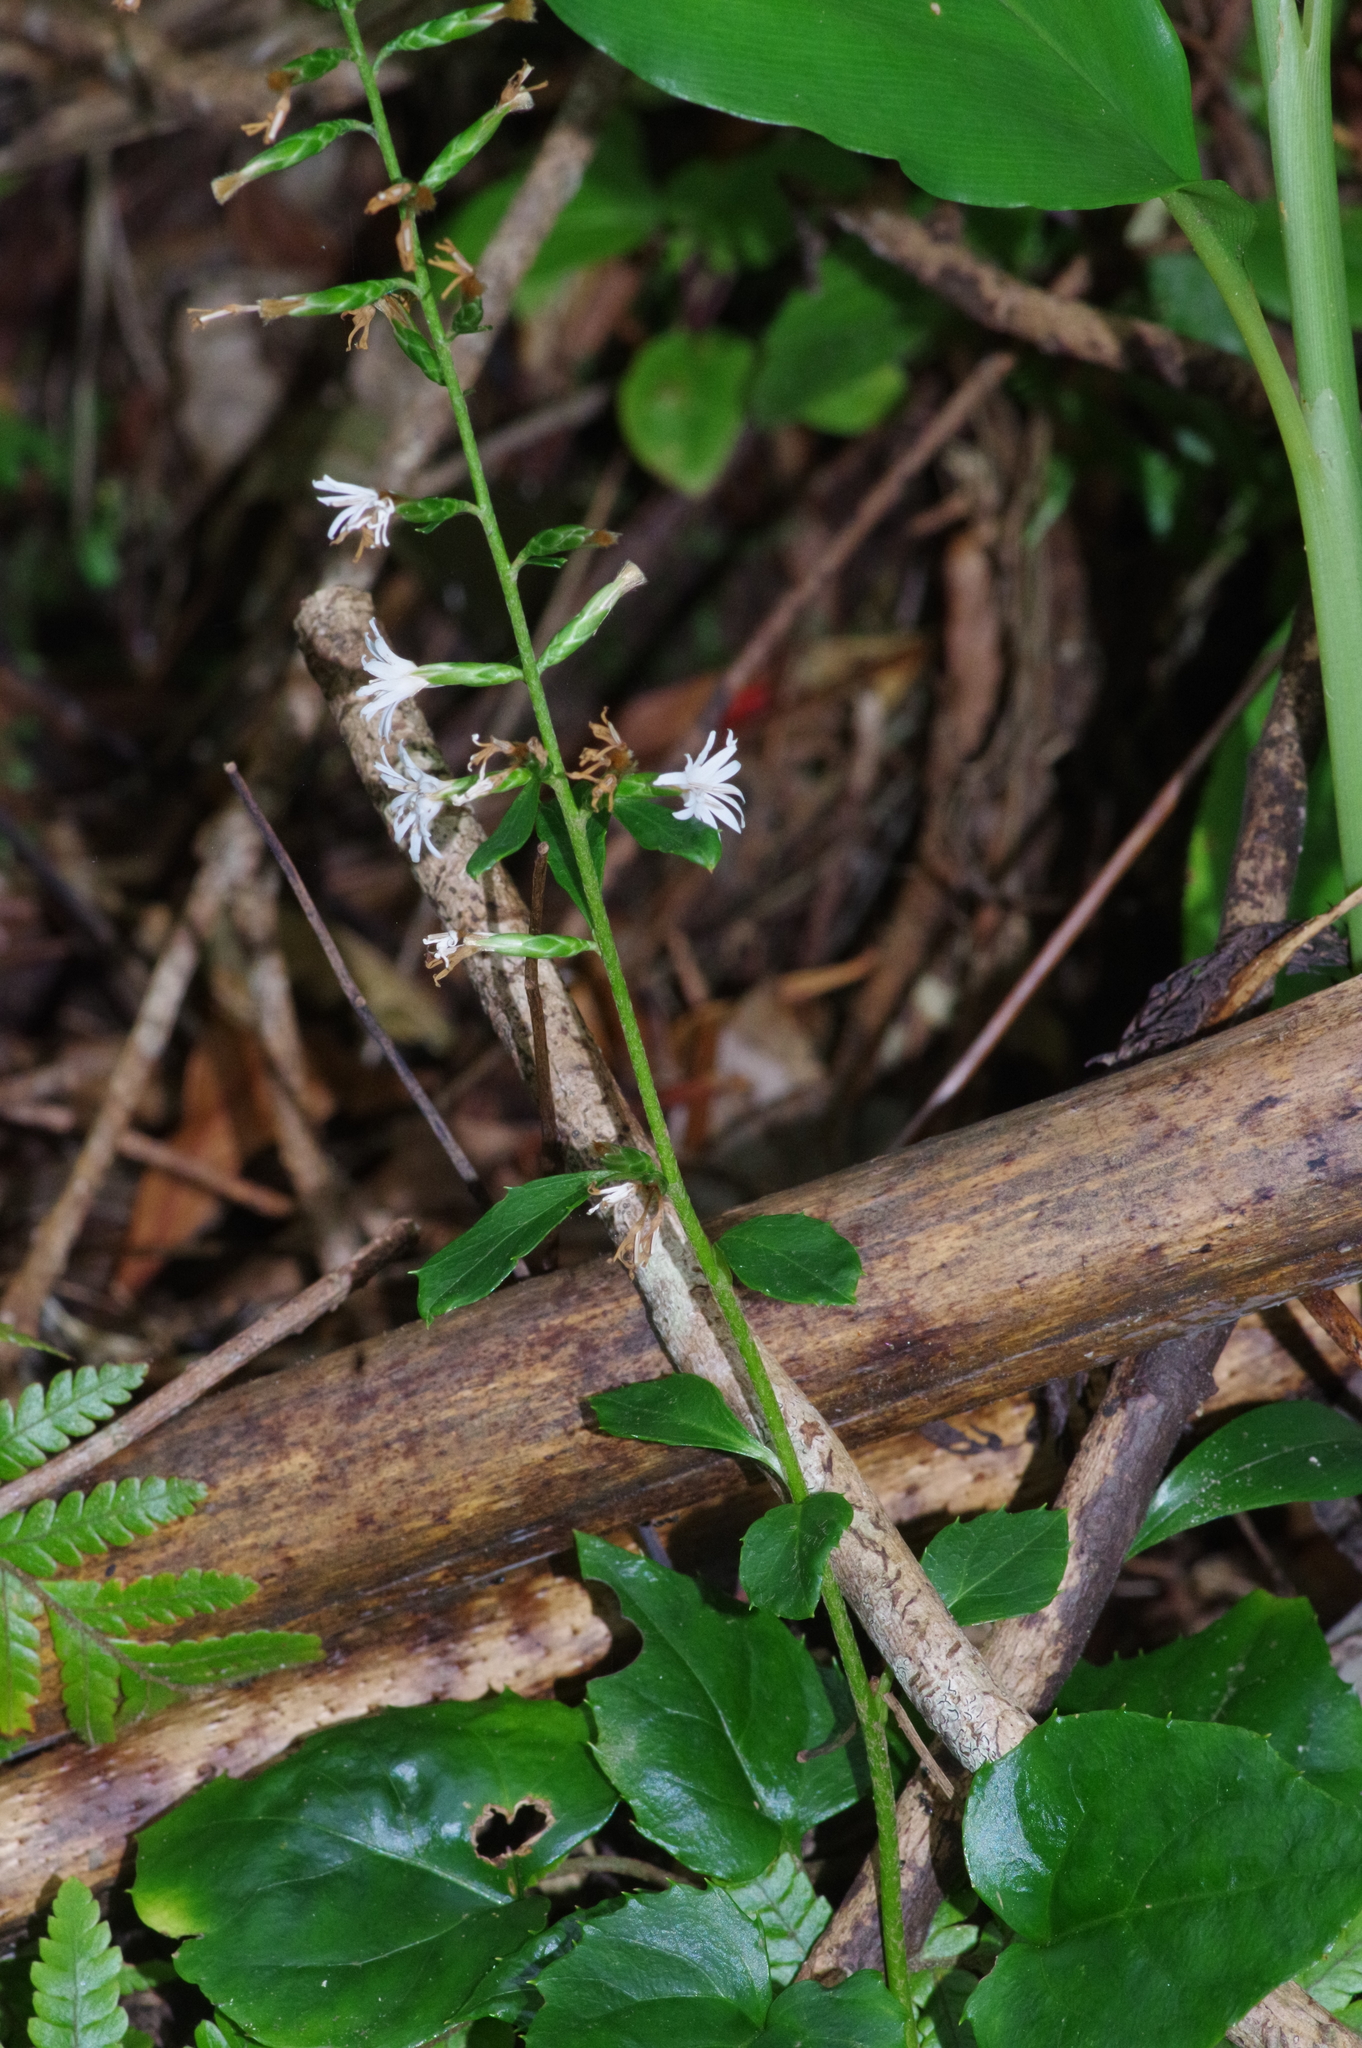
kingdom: Plantae
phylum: Tracheophyta
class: Magnoliopsida
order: Asterales
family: Asteraceae
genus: Ainsliaea
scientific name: Ainsliaea macroclinidioides
